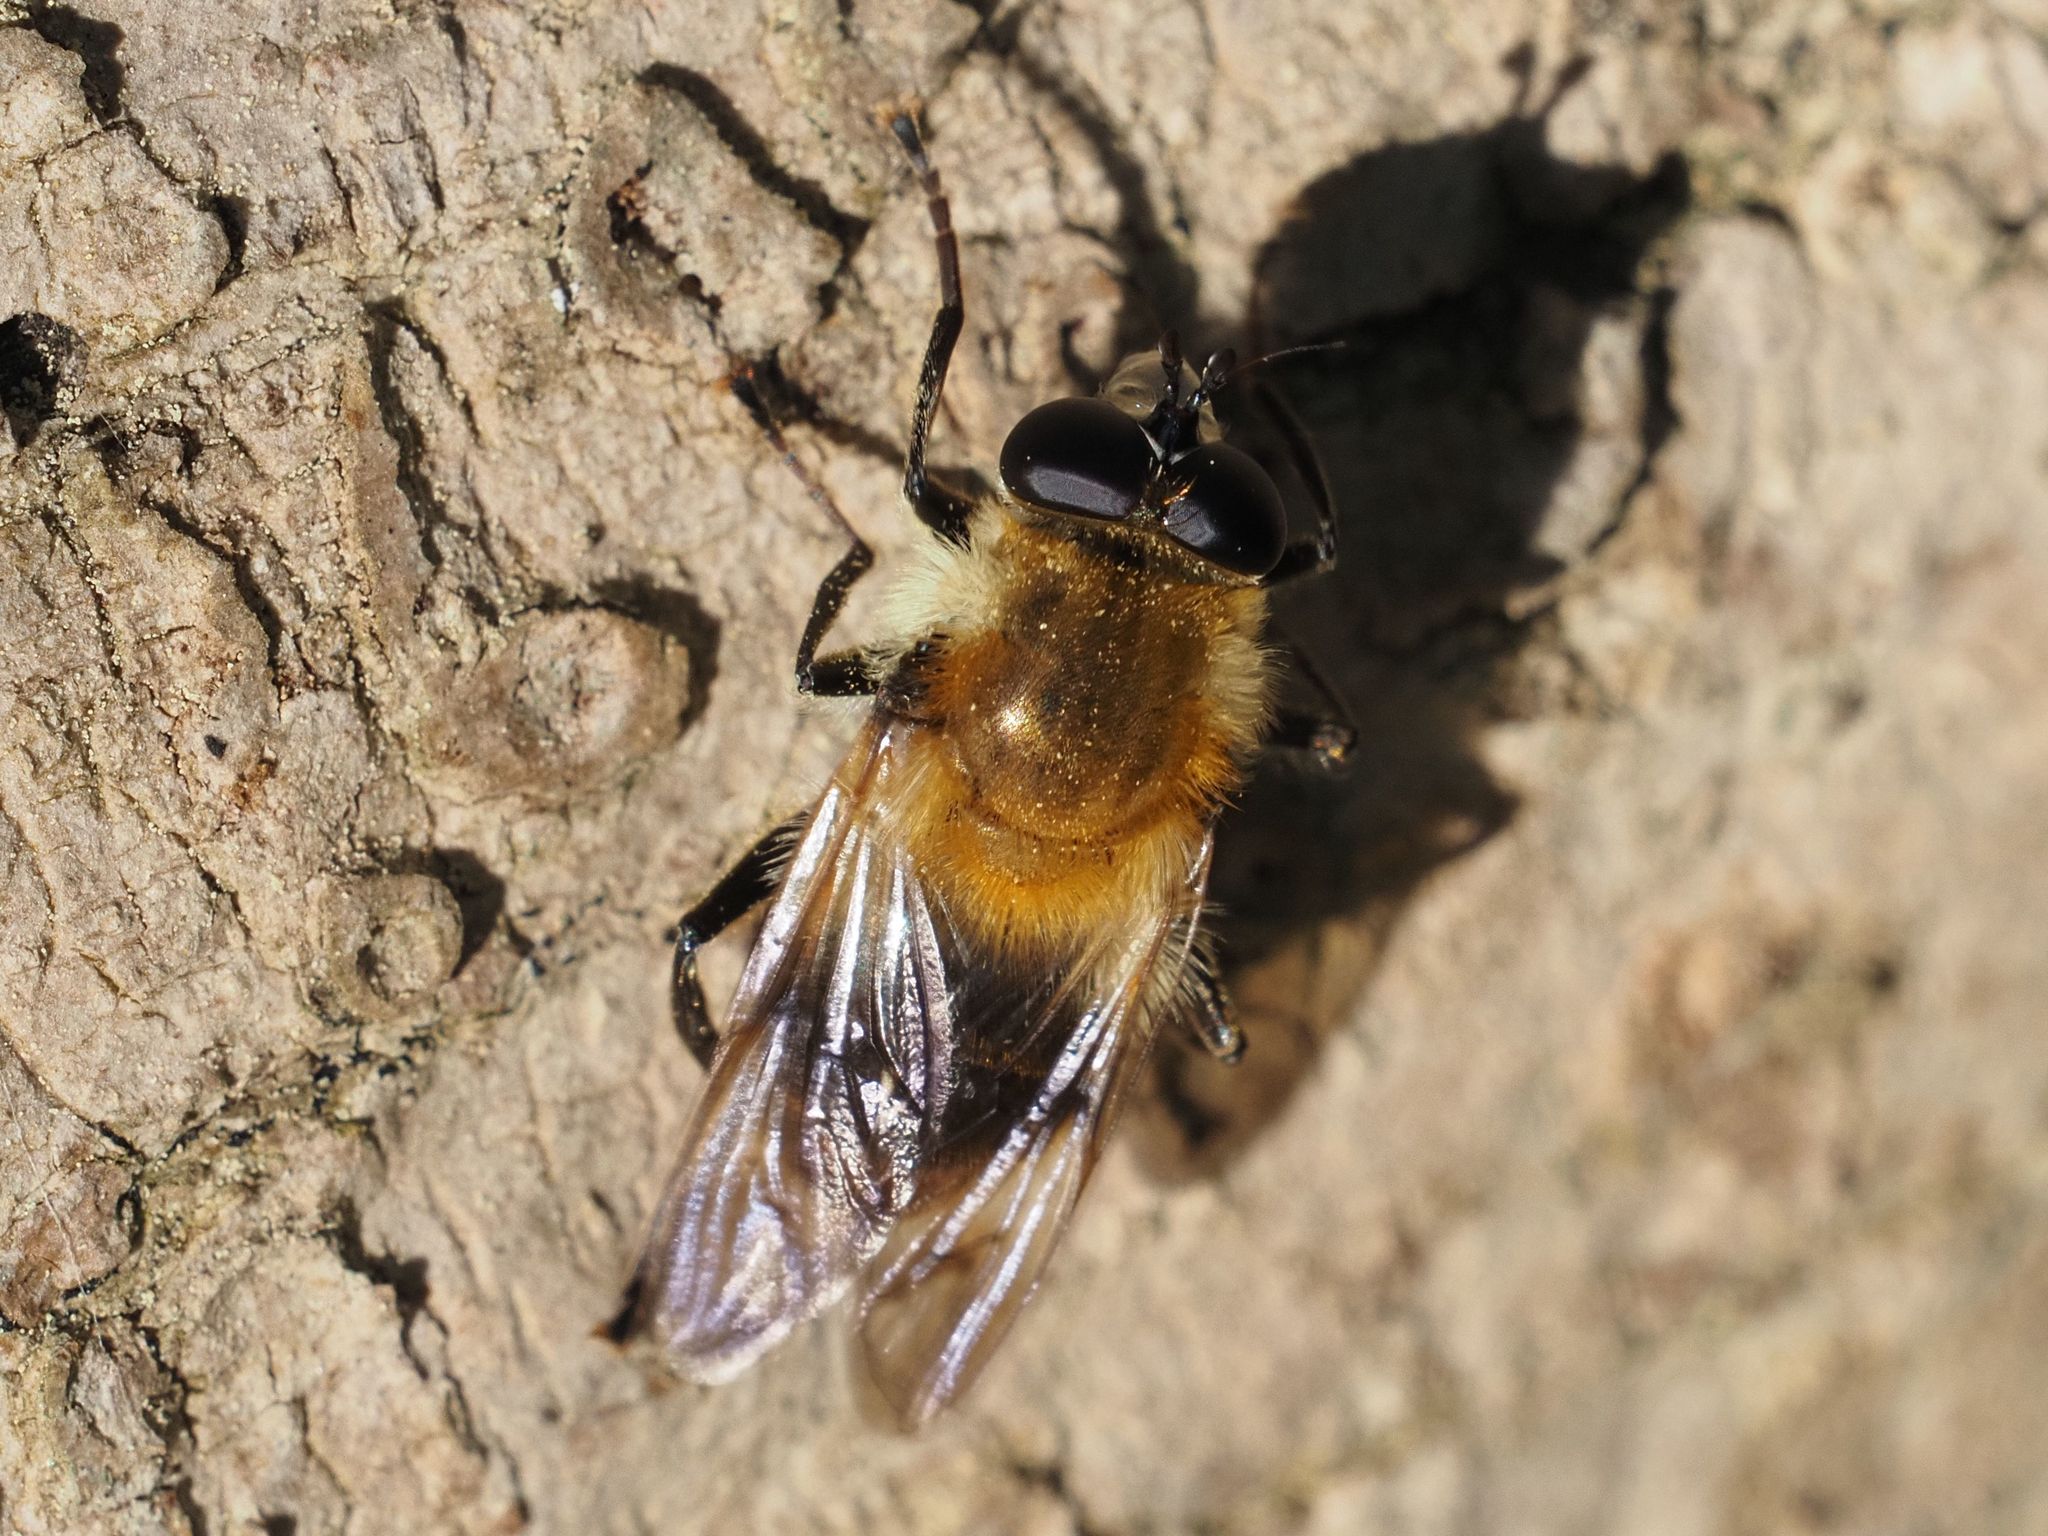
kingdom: Animalia
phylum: Arthropoda
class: Insecta
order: Diptera
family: Syrphidae
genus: Criorhina
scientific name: Criorhina floccosa
